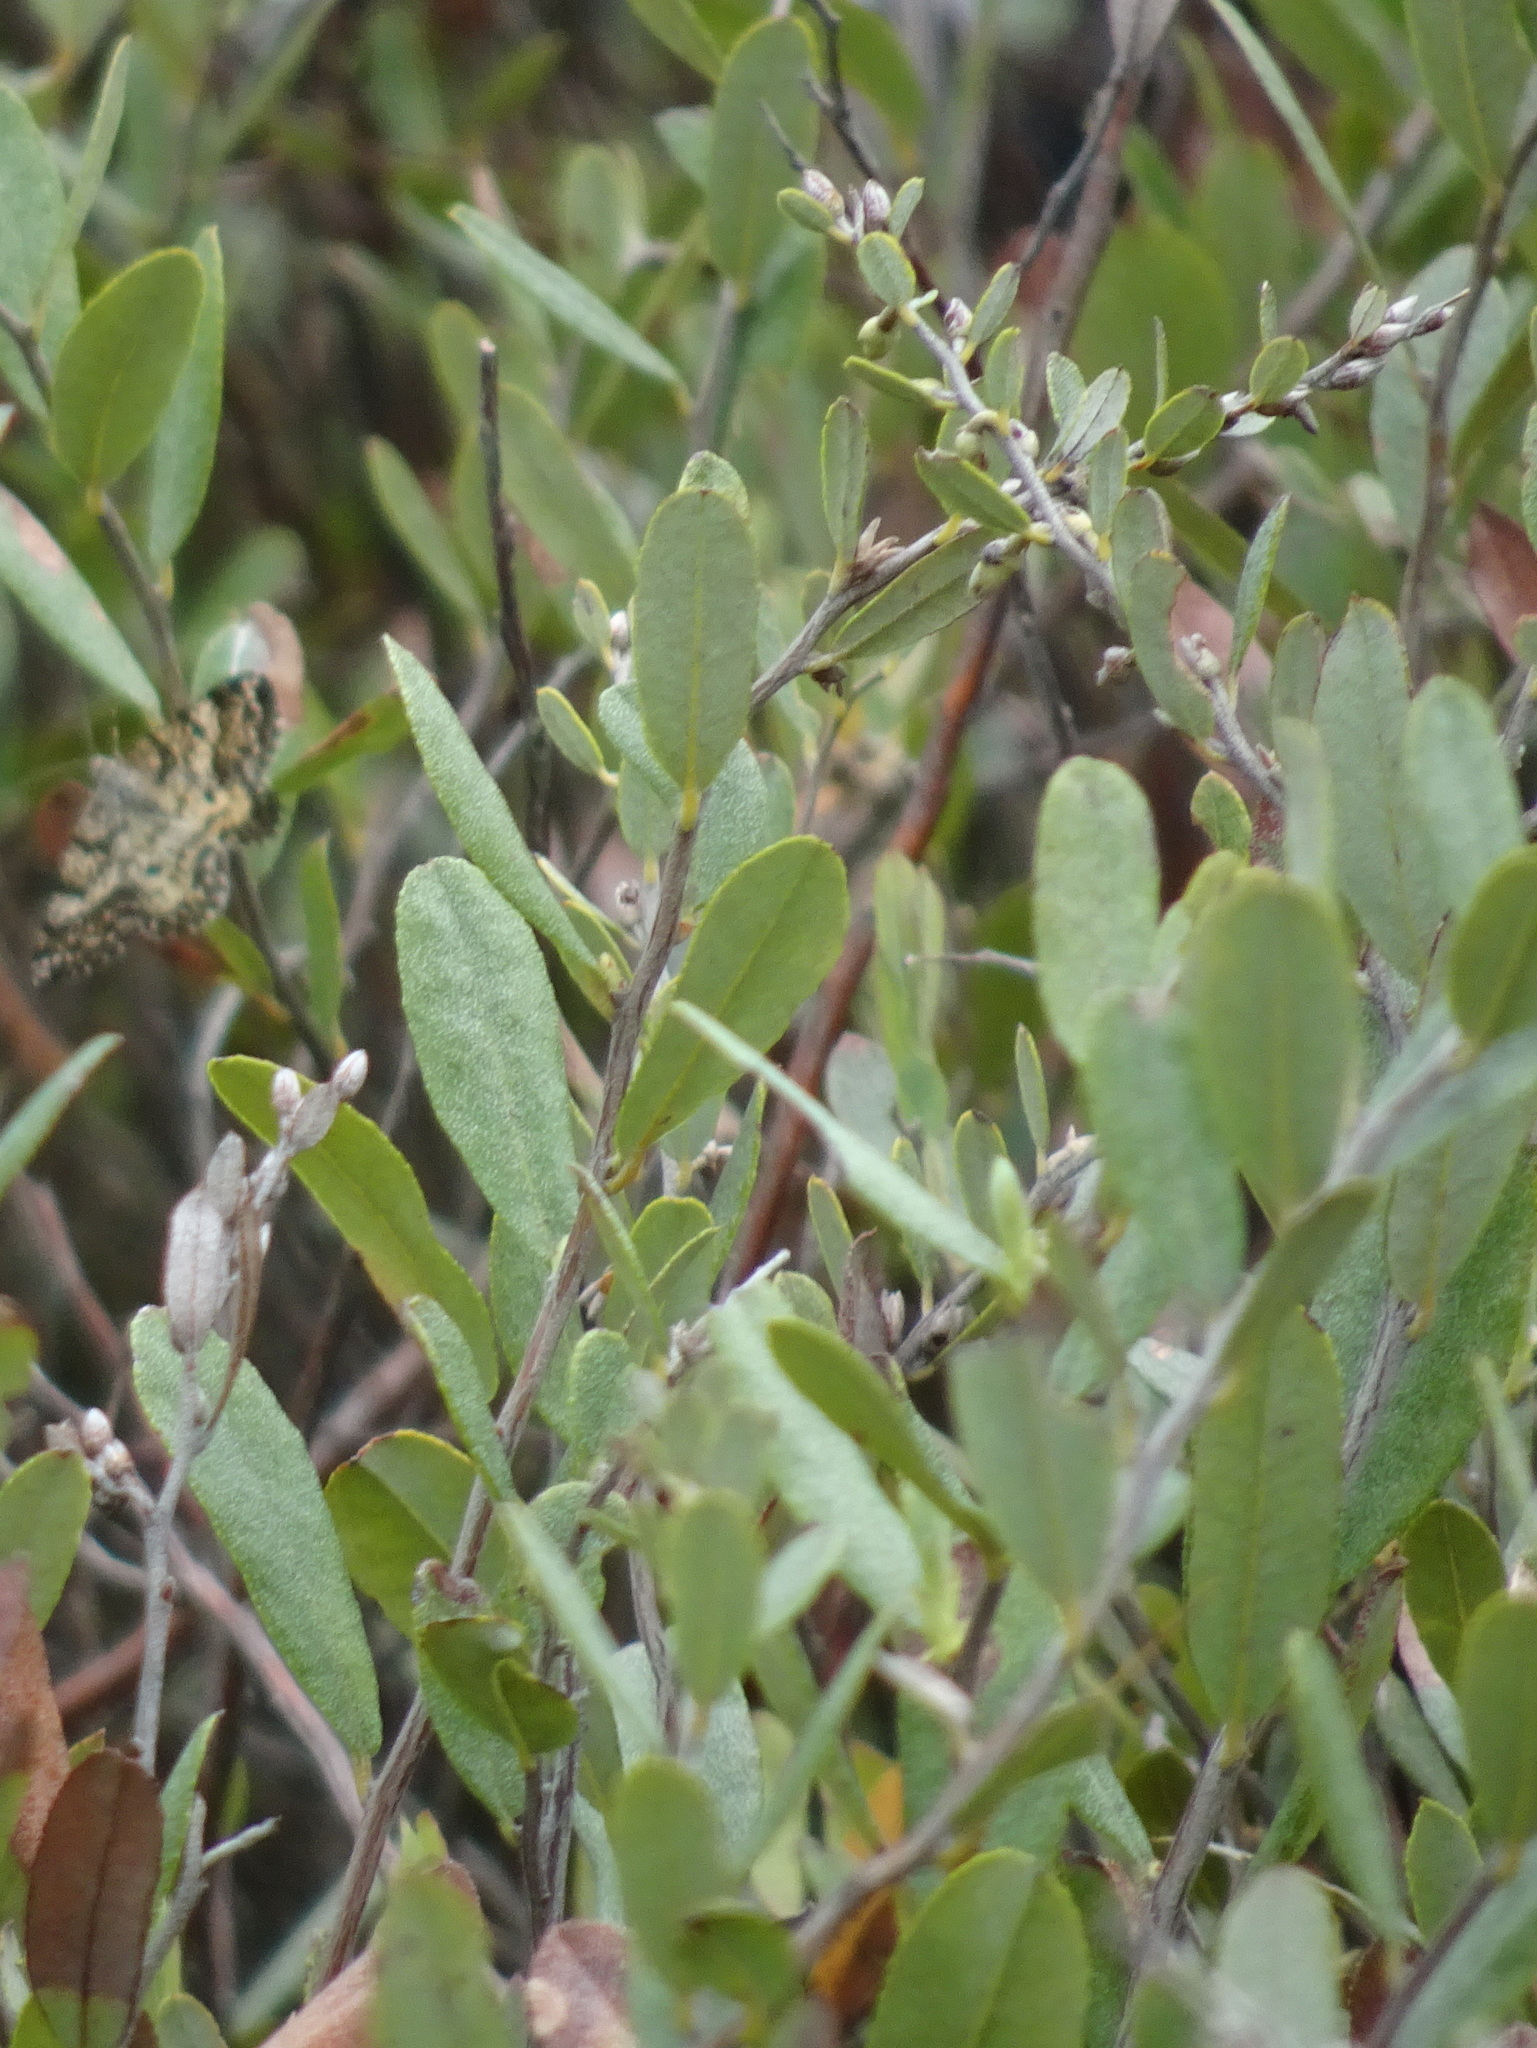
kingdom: Plantae
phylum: Tracheophyta
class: Magnoliopsida
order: Ericales
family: Ericaceae
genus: Chamaedaphne
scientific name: Chamaedaphne calyculata
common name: Leatherleaf
